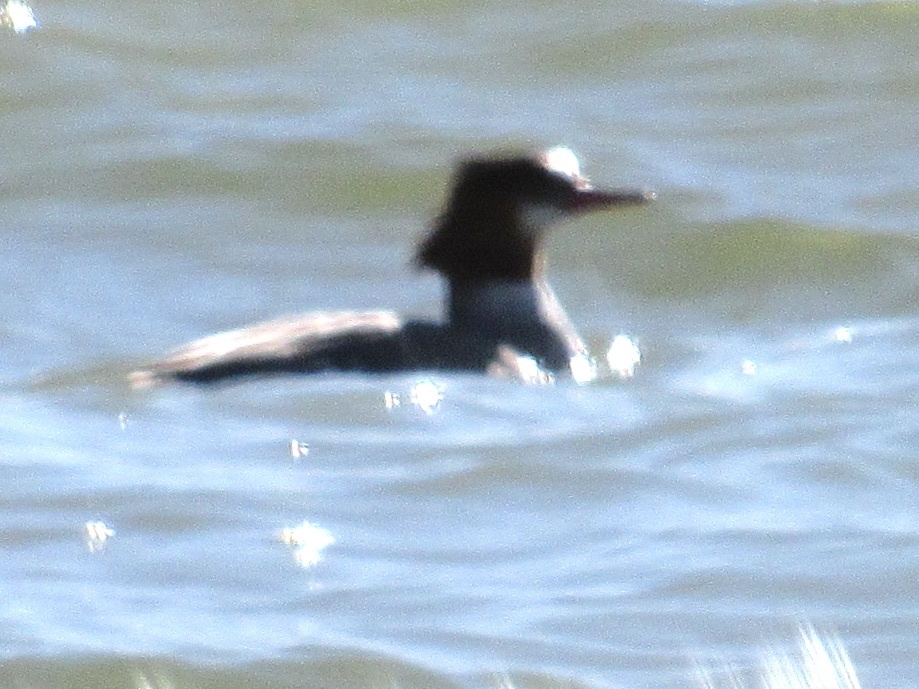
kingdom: Animalia
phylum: Chordata
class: Aves
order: Anseriformes
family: Anatidae
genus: Mergus
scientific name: Mergus merganser
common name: Common merganser
